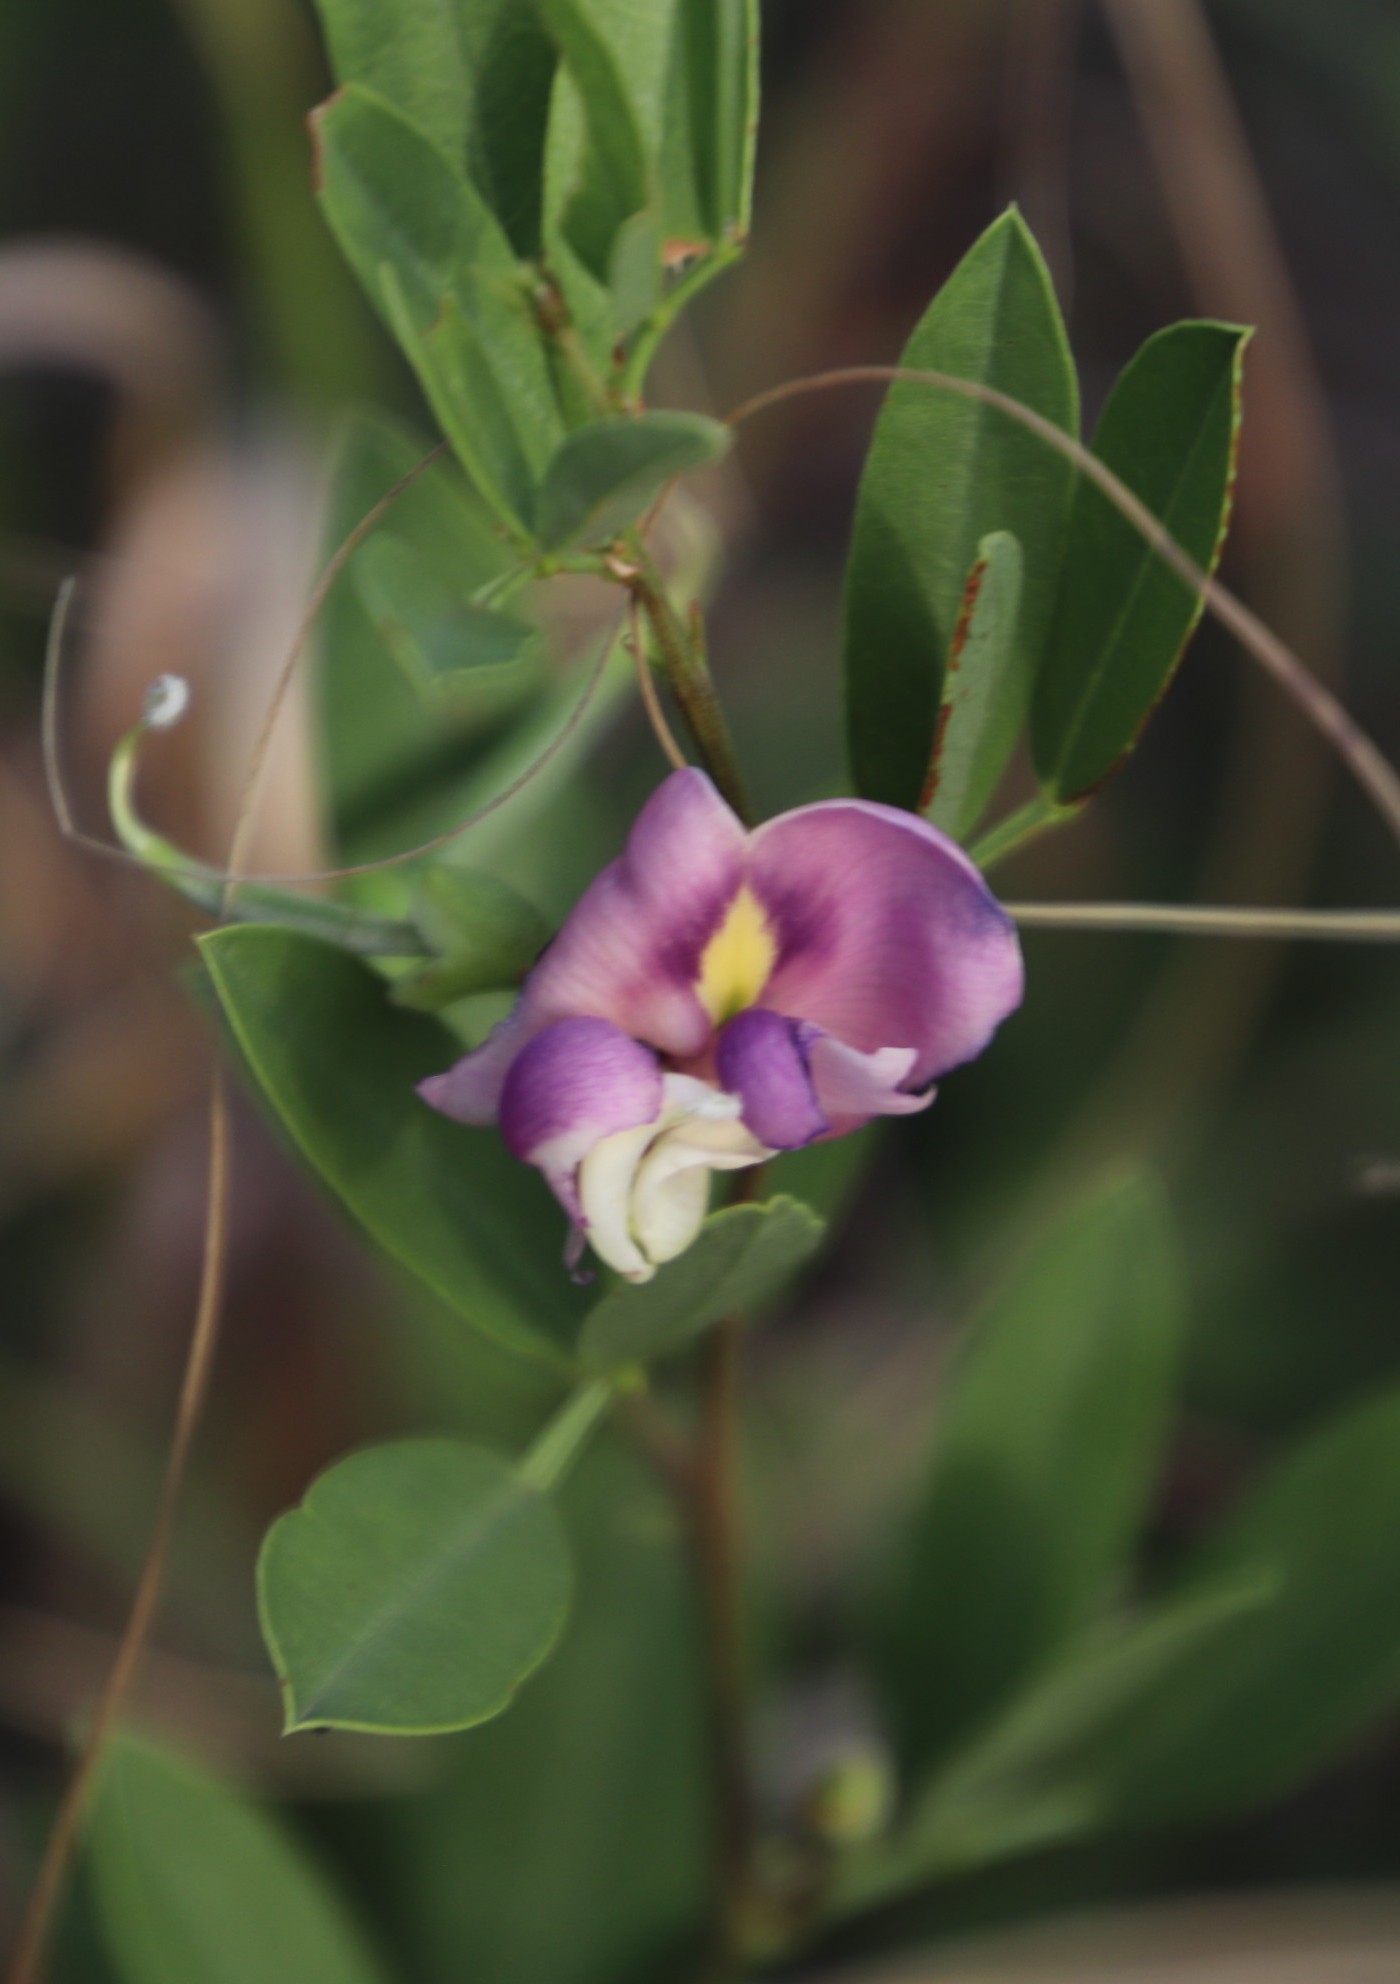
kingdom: Plantae
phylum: Tracheophyta
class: Magnoliopsida
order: Fabales
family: Fabaceae
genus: Sphenostylis
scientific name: Sphenostylis angustifolia
